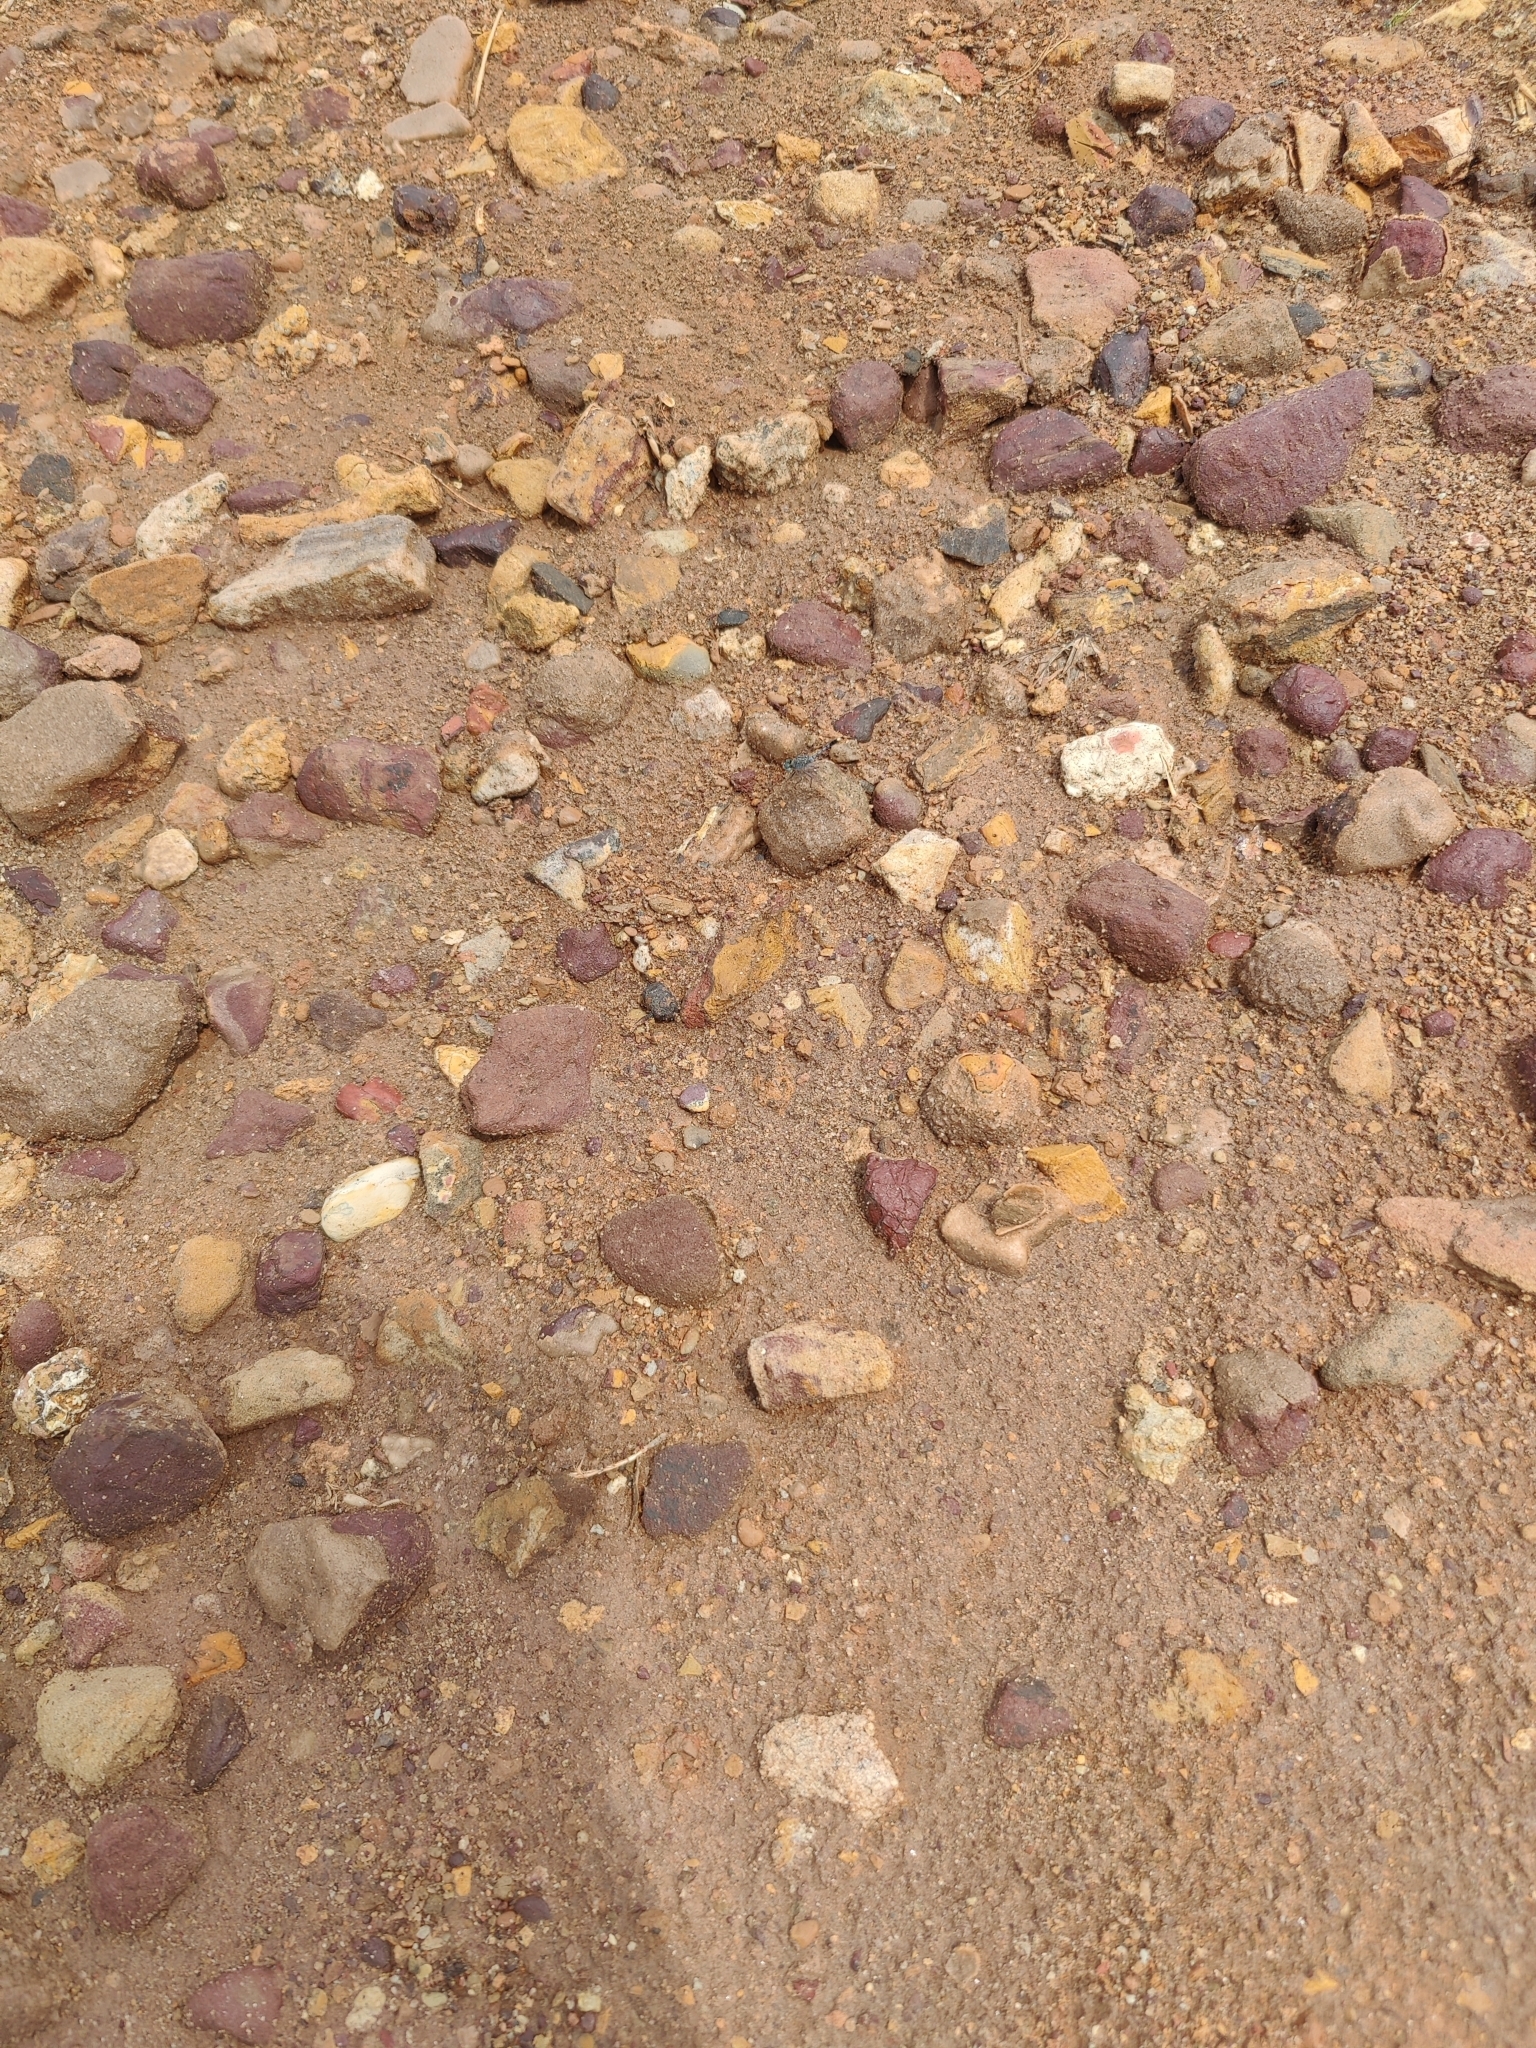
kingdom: Animalia
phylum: Arthropoda
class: Insecta
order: Odonata
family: Libellulidae
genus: Diplacodes
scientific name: Diplacodes trivialis
